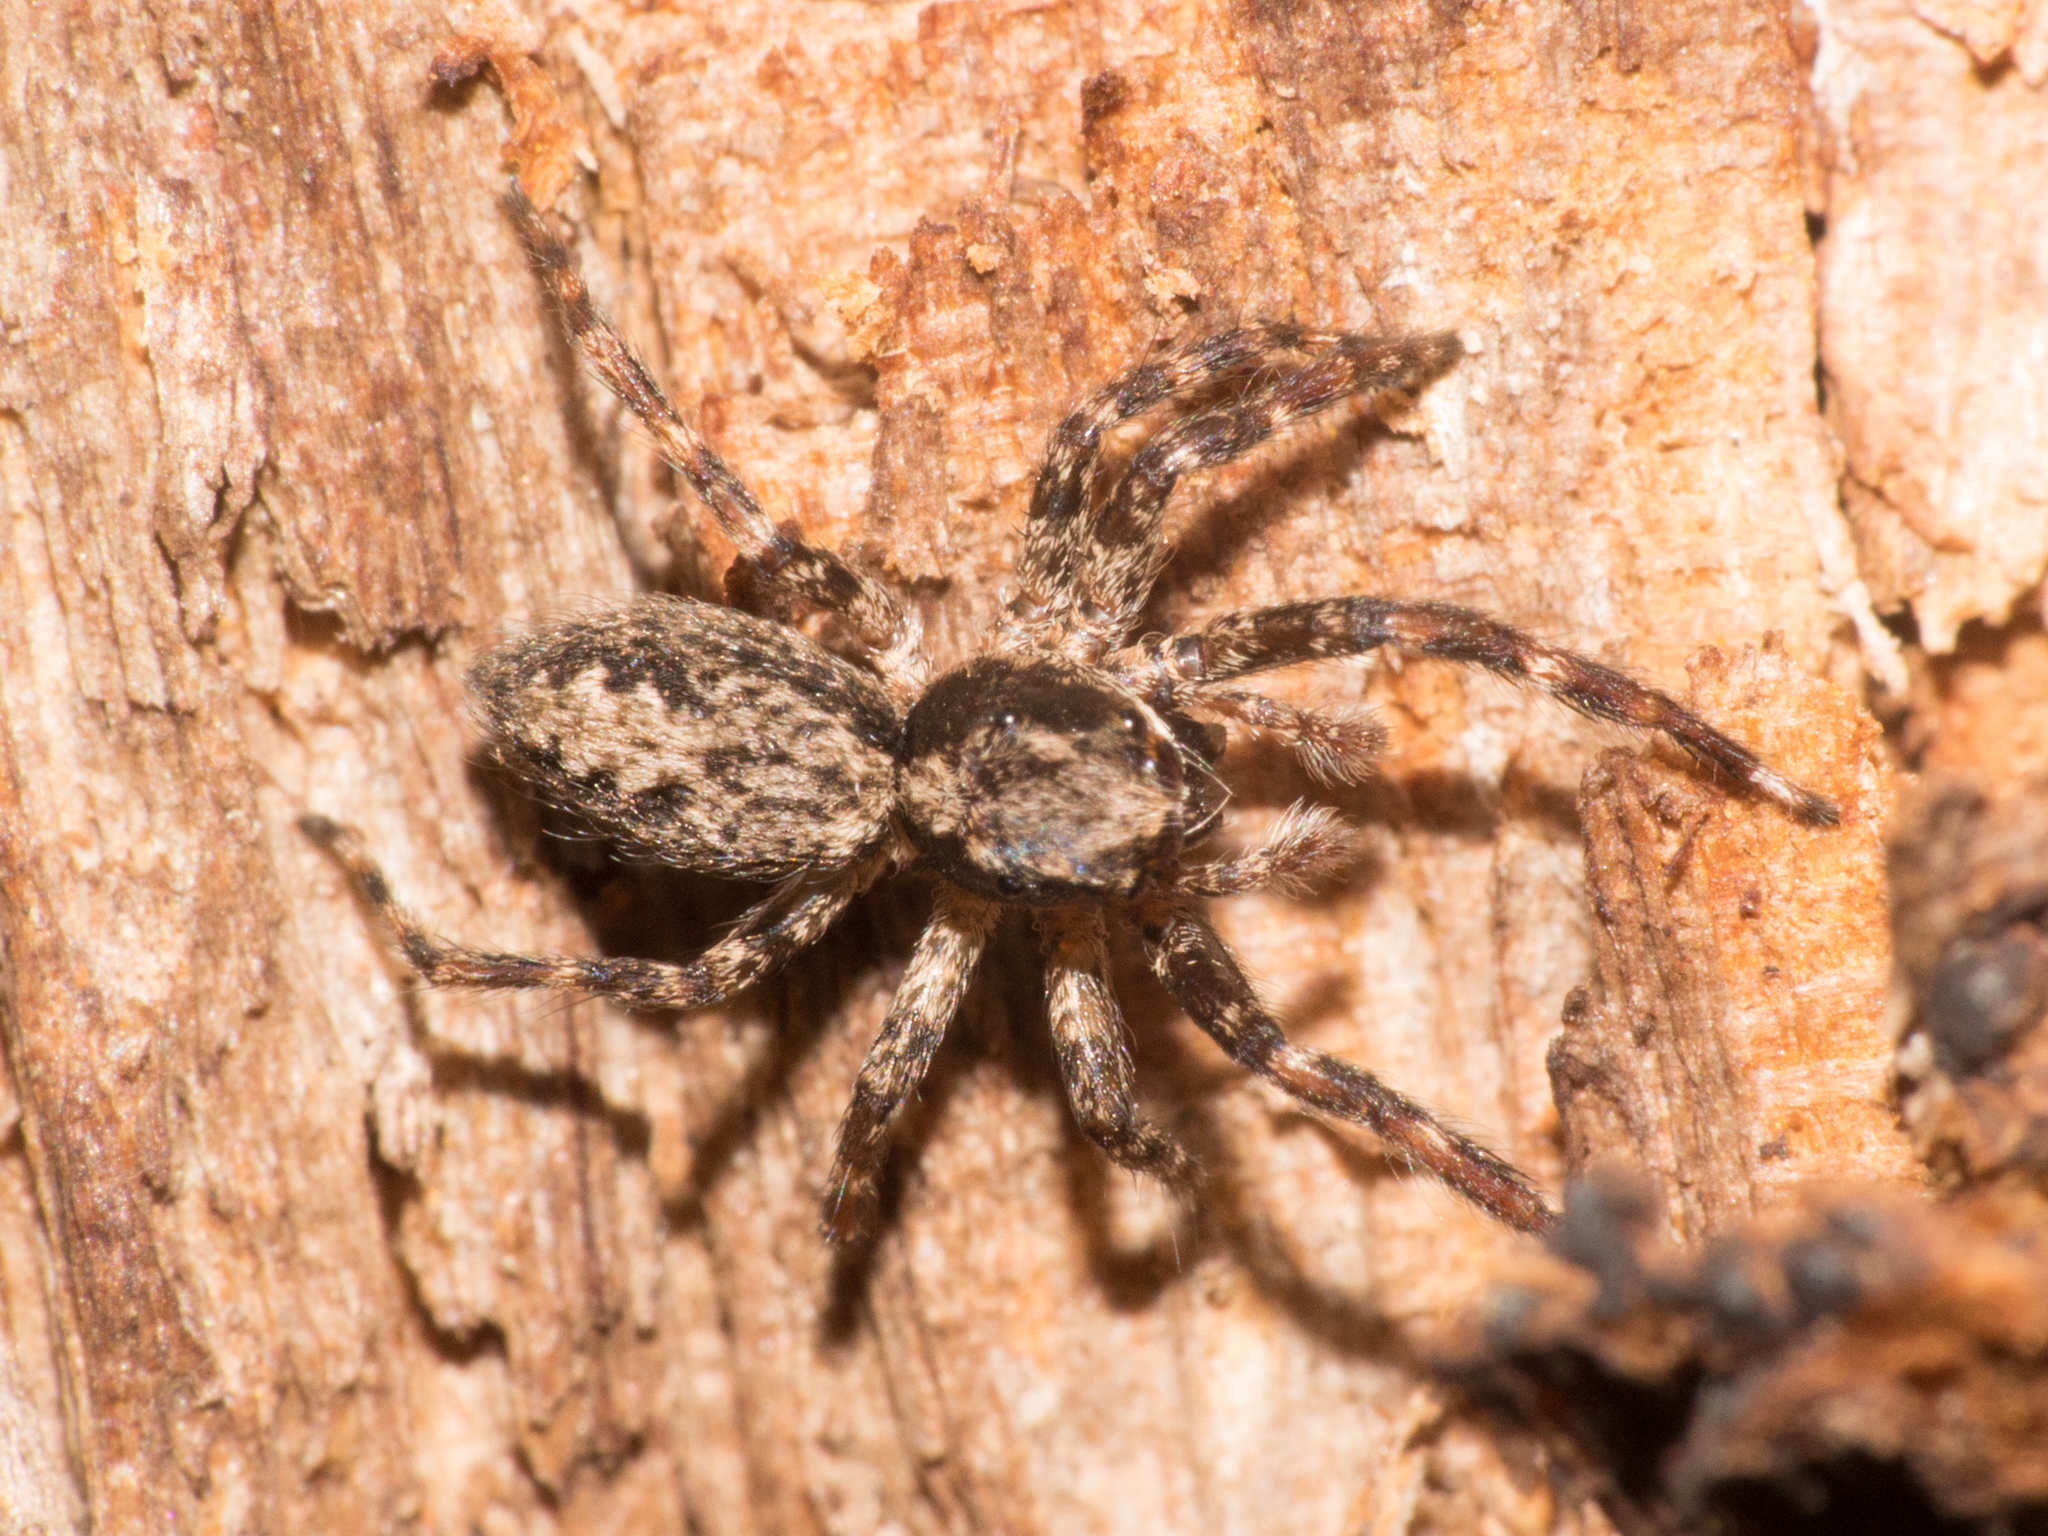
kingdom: Animalia
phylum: Arthropoda
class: Arachnida
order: Araneae
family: Salticidae
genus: Titanattus
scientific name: Titanattus andinus
